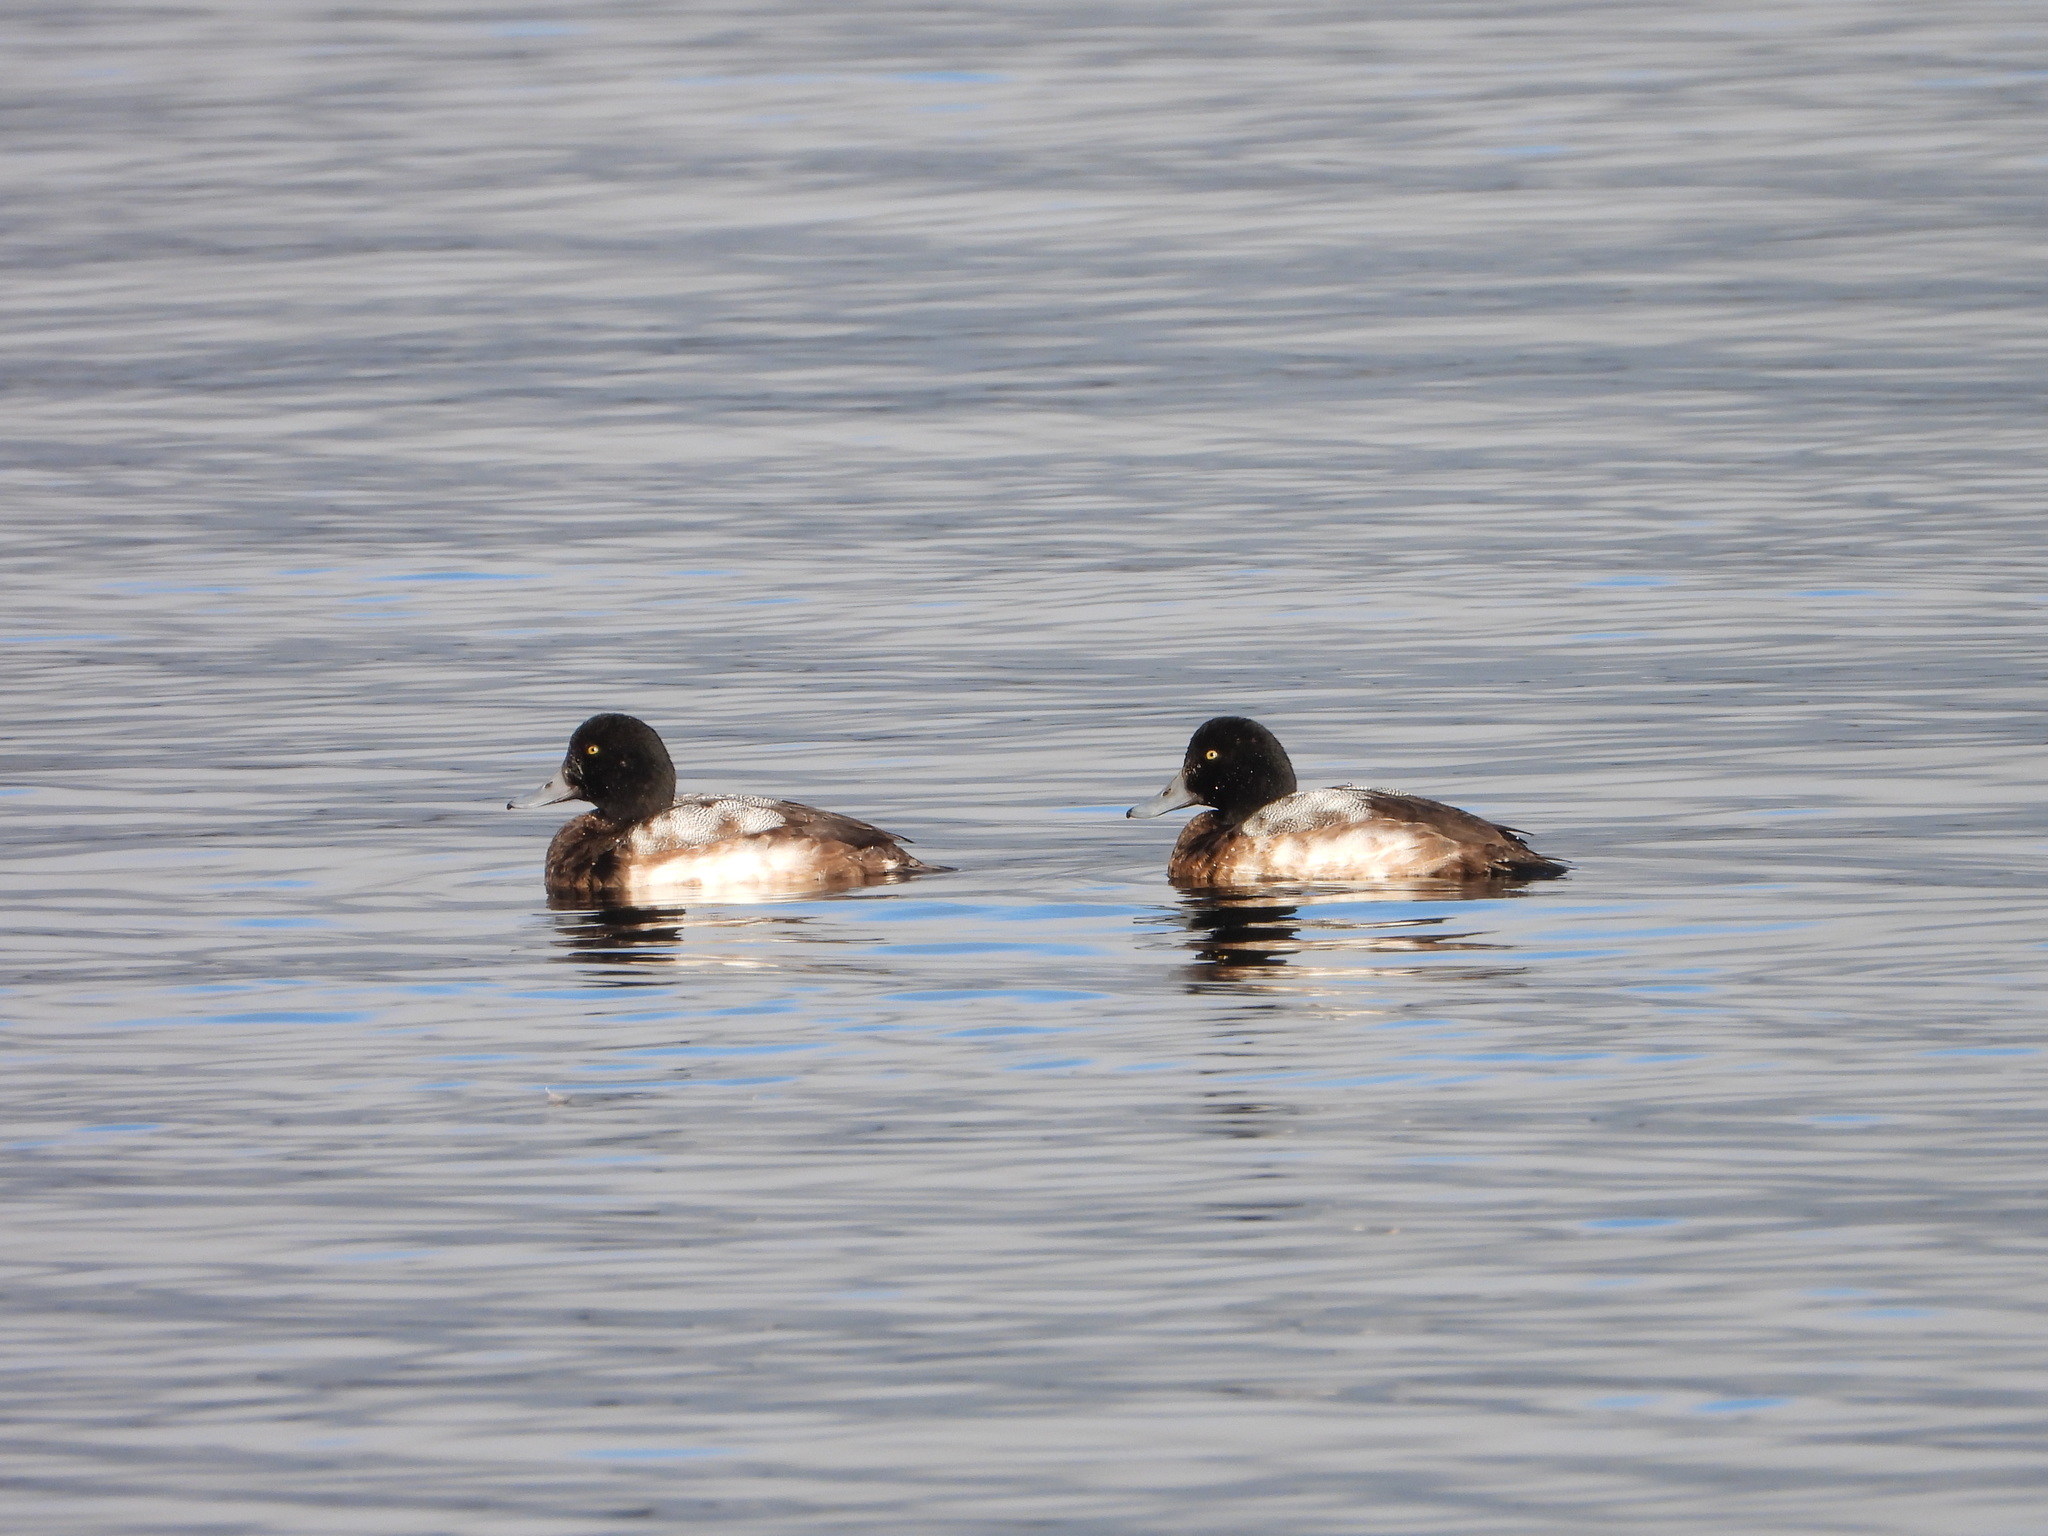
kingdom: Animalia
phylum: Chordata
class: Aves
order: Anseriformes
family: Anatidae
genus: Aythya
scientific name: Aythya marila
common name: Greater scaup
